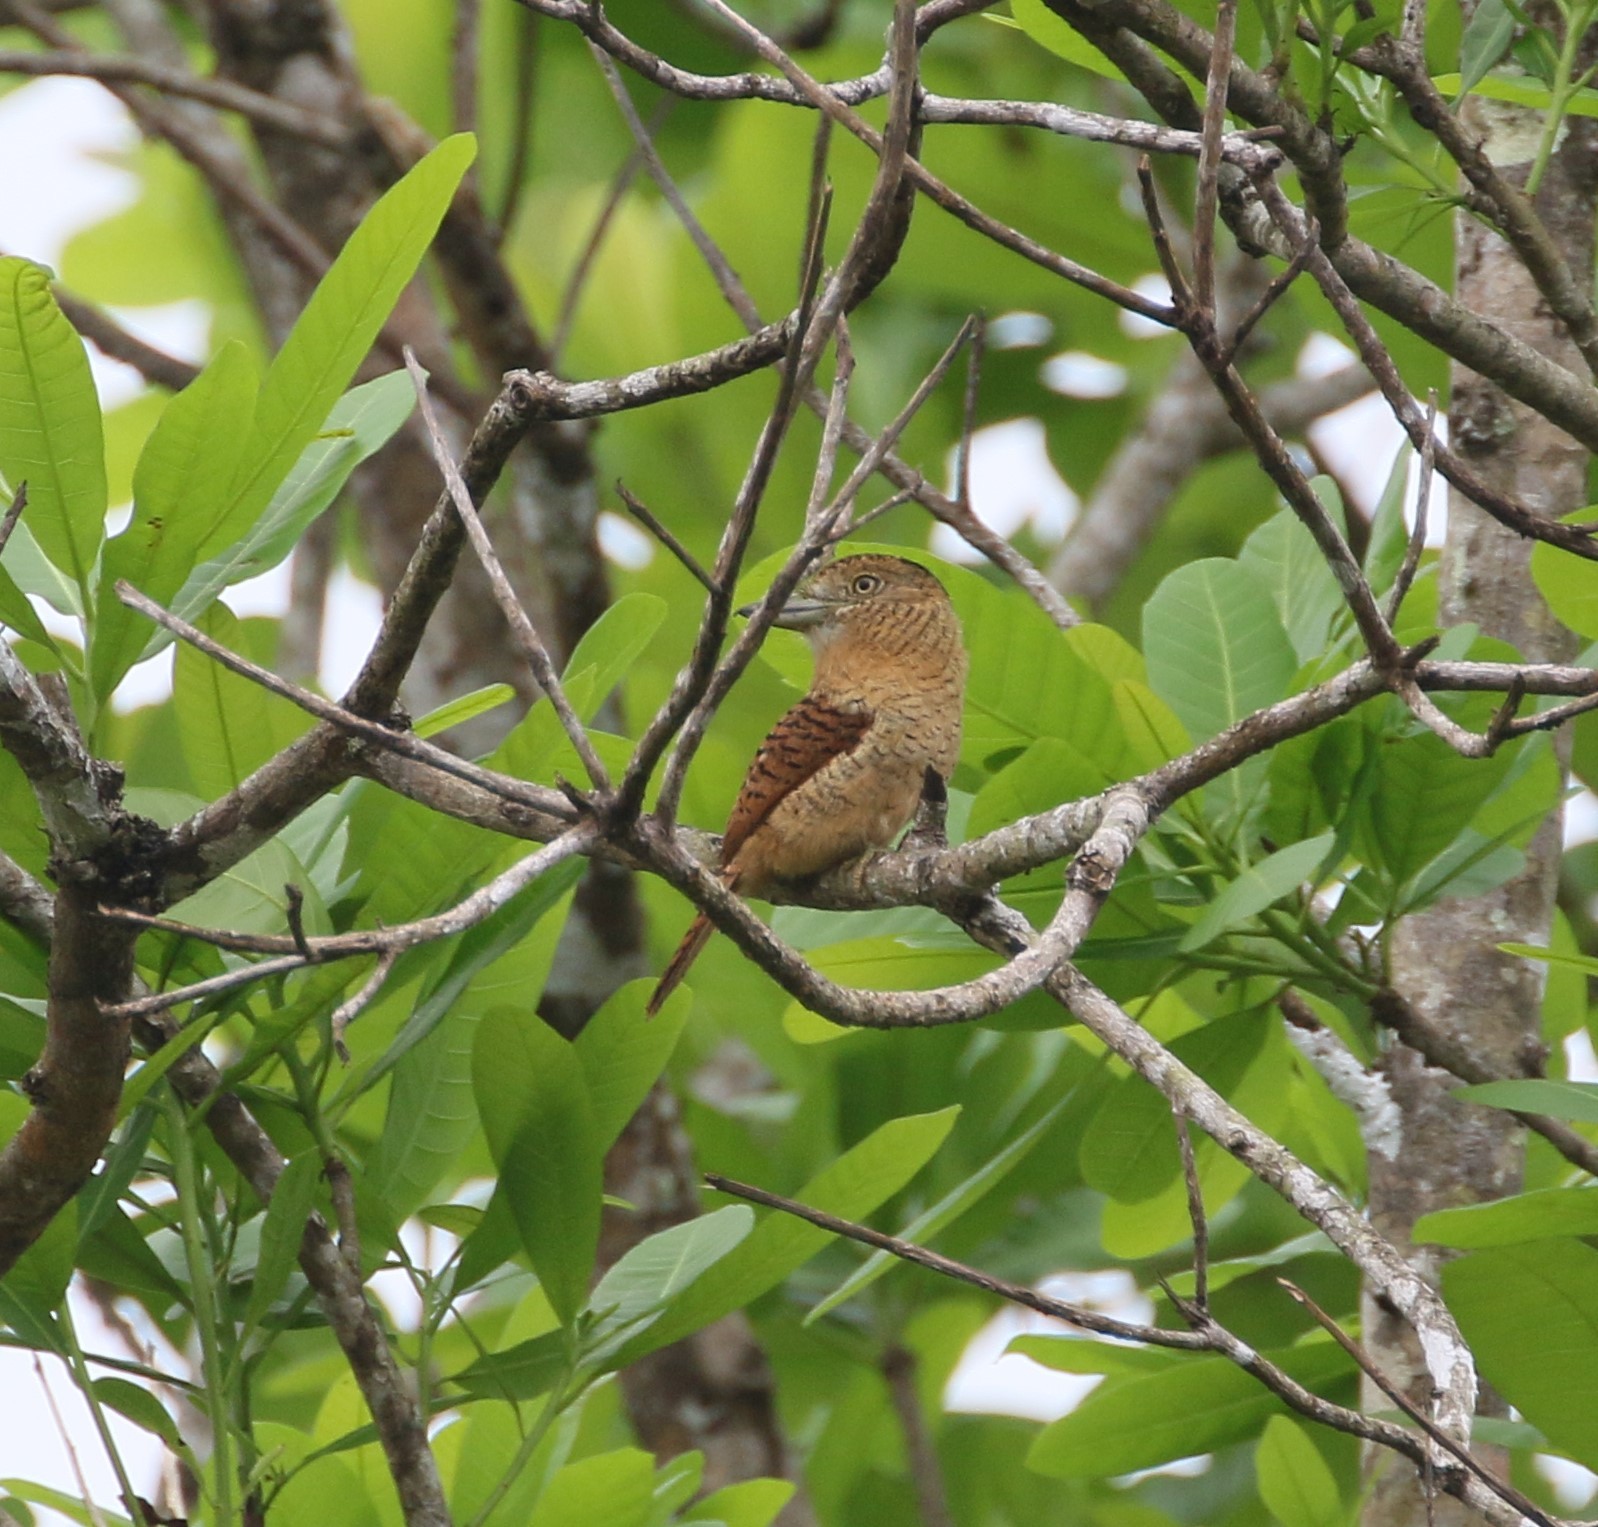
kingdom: Animalia
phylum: Chordata
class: Aves
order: Piciformes
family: Bucconidae
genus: Nystalus
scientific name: Nystalus radiatus
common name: Barred puffbird
